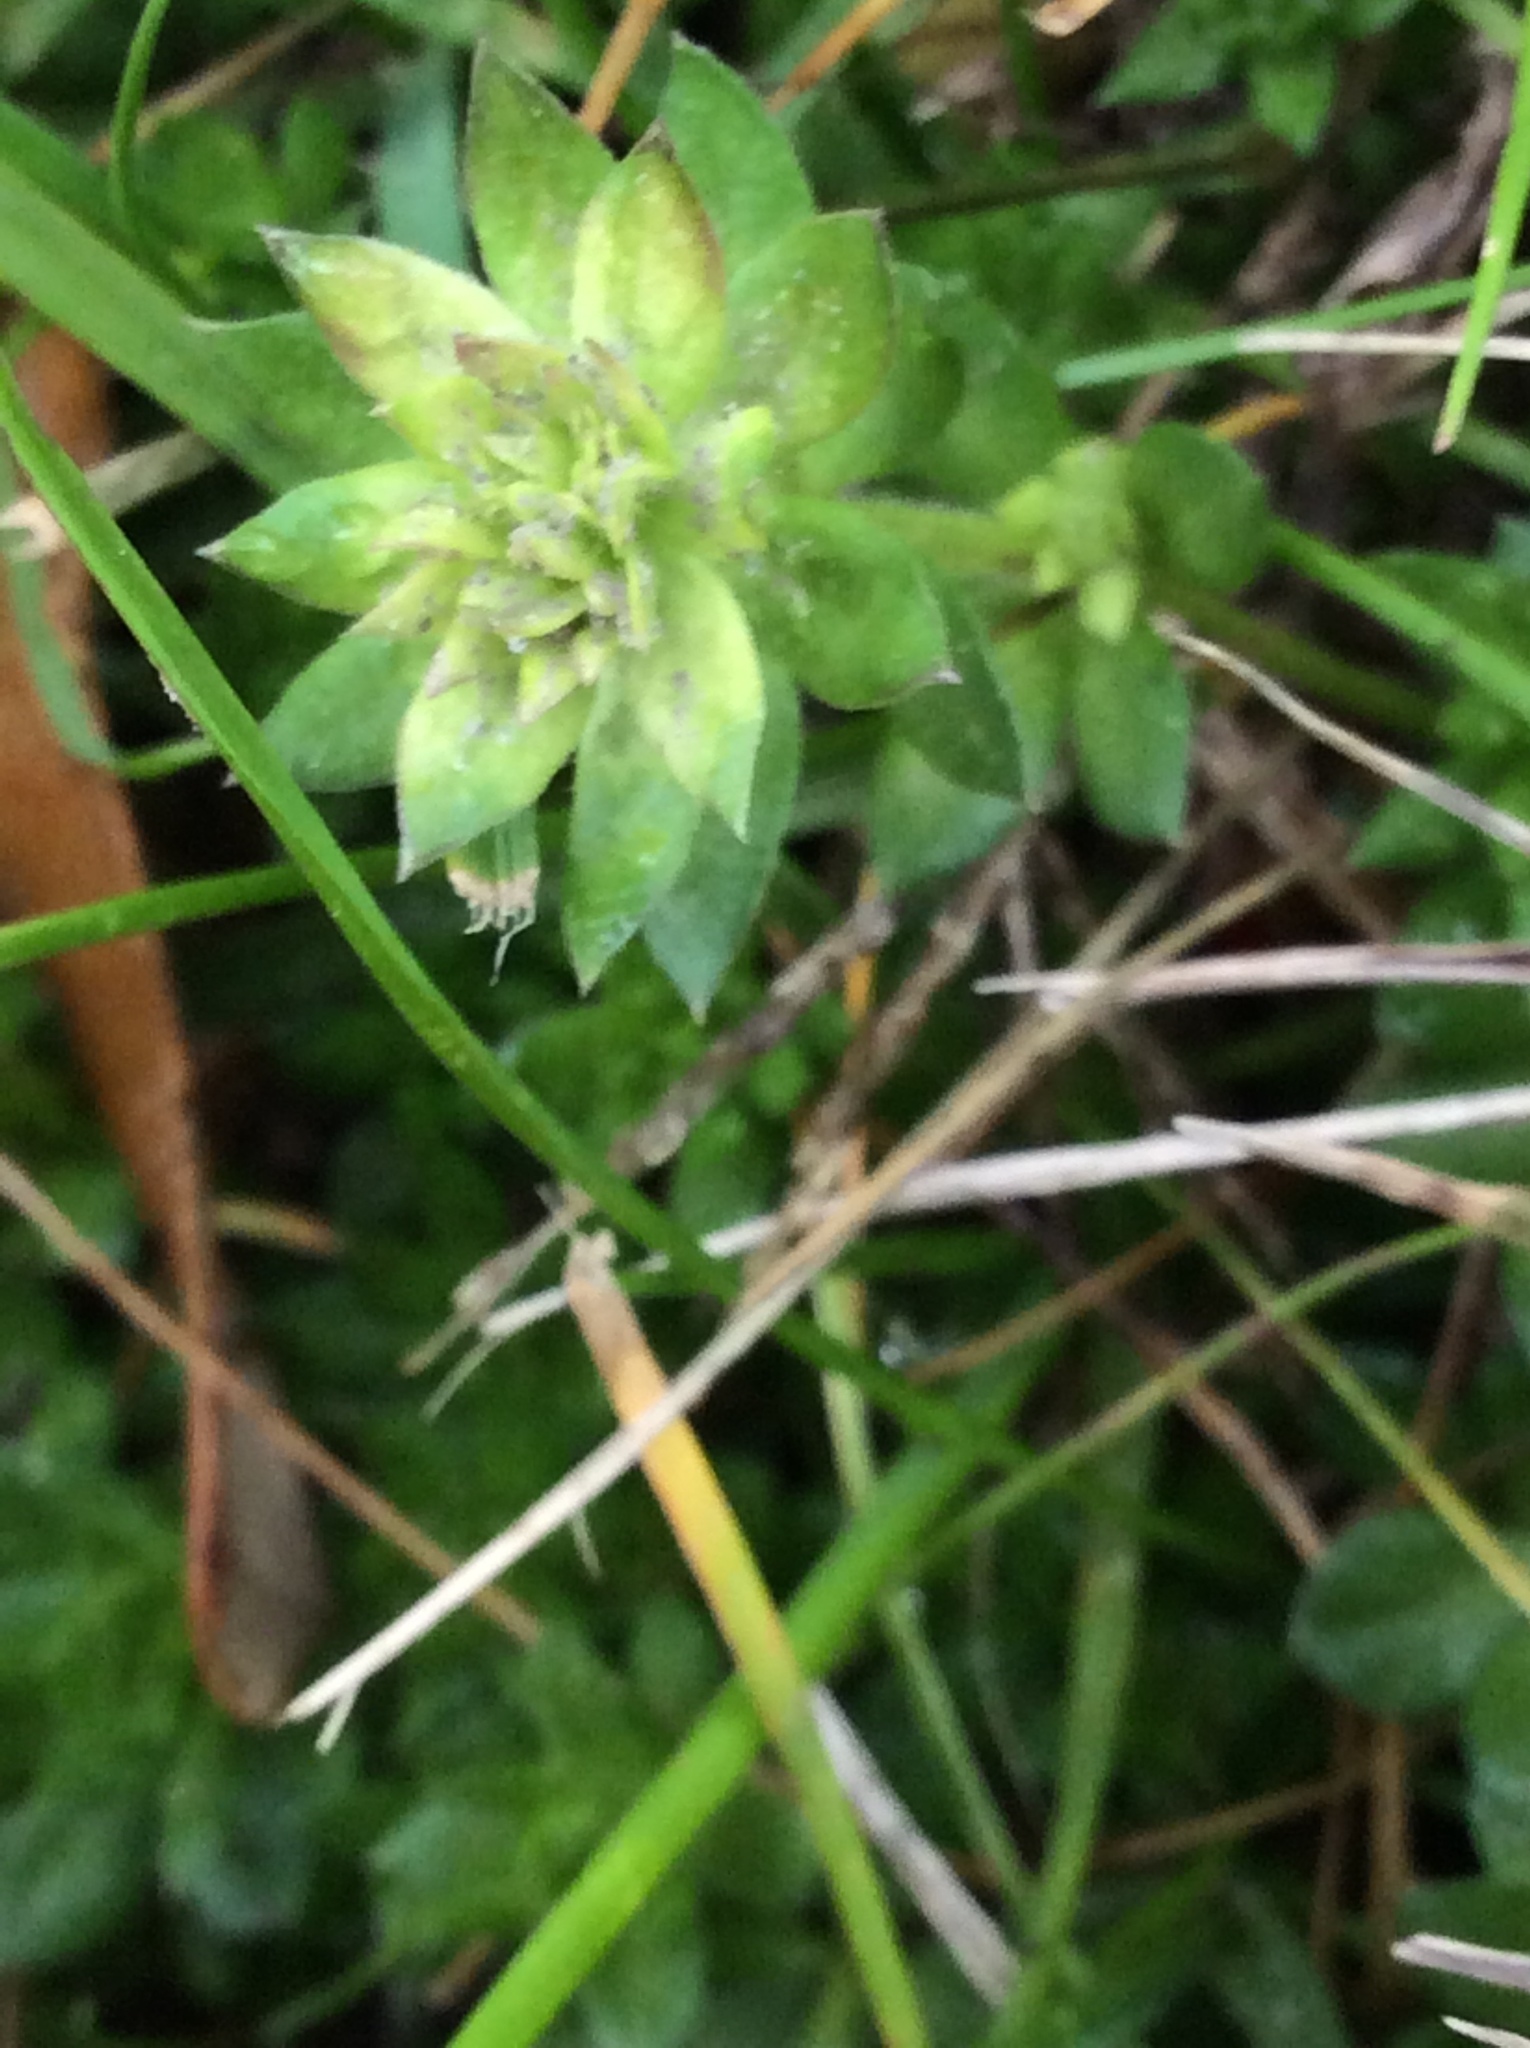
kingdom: Plantae
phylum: Tracheophyta
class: Magnoliopsida
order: Gentianales
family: Rubiaceae
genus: Sherardia
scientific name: Sherardia arvensis
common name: Field madder
